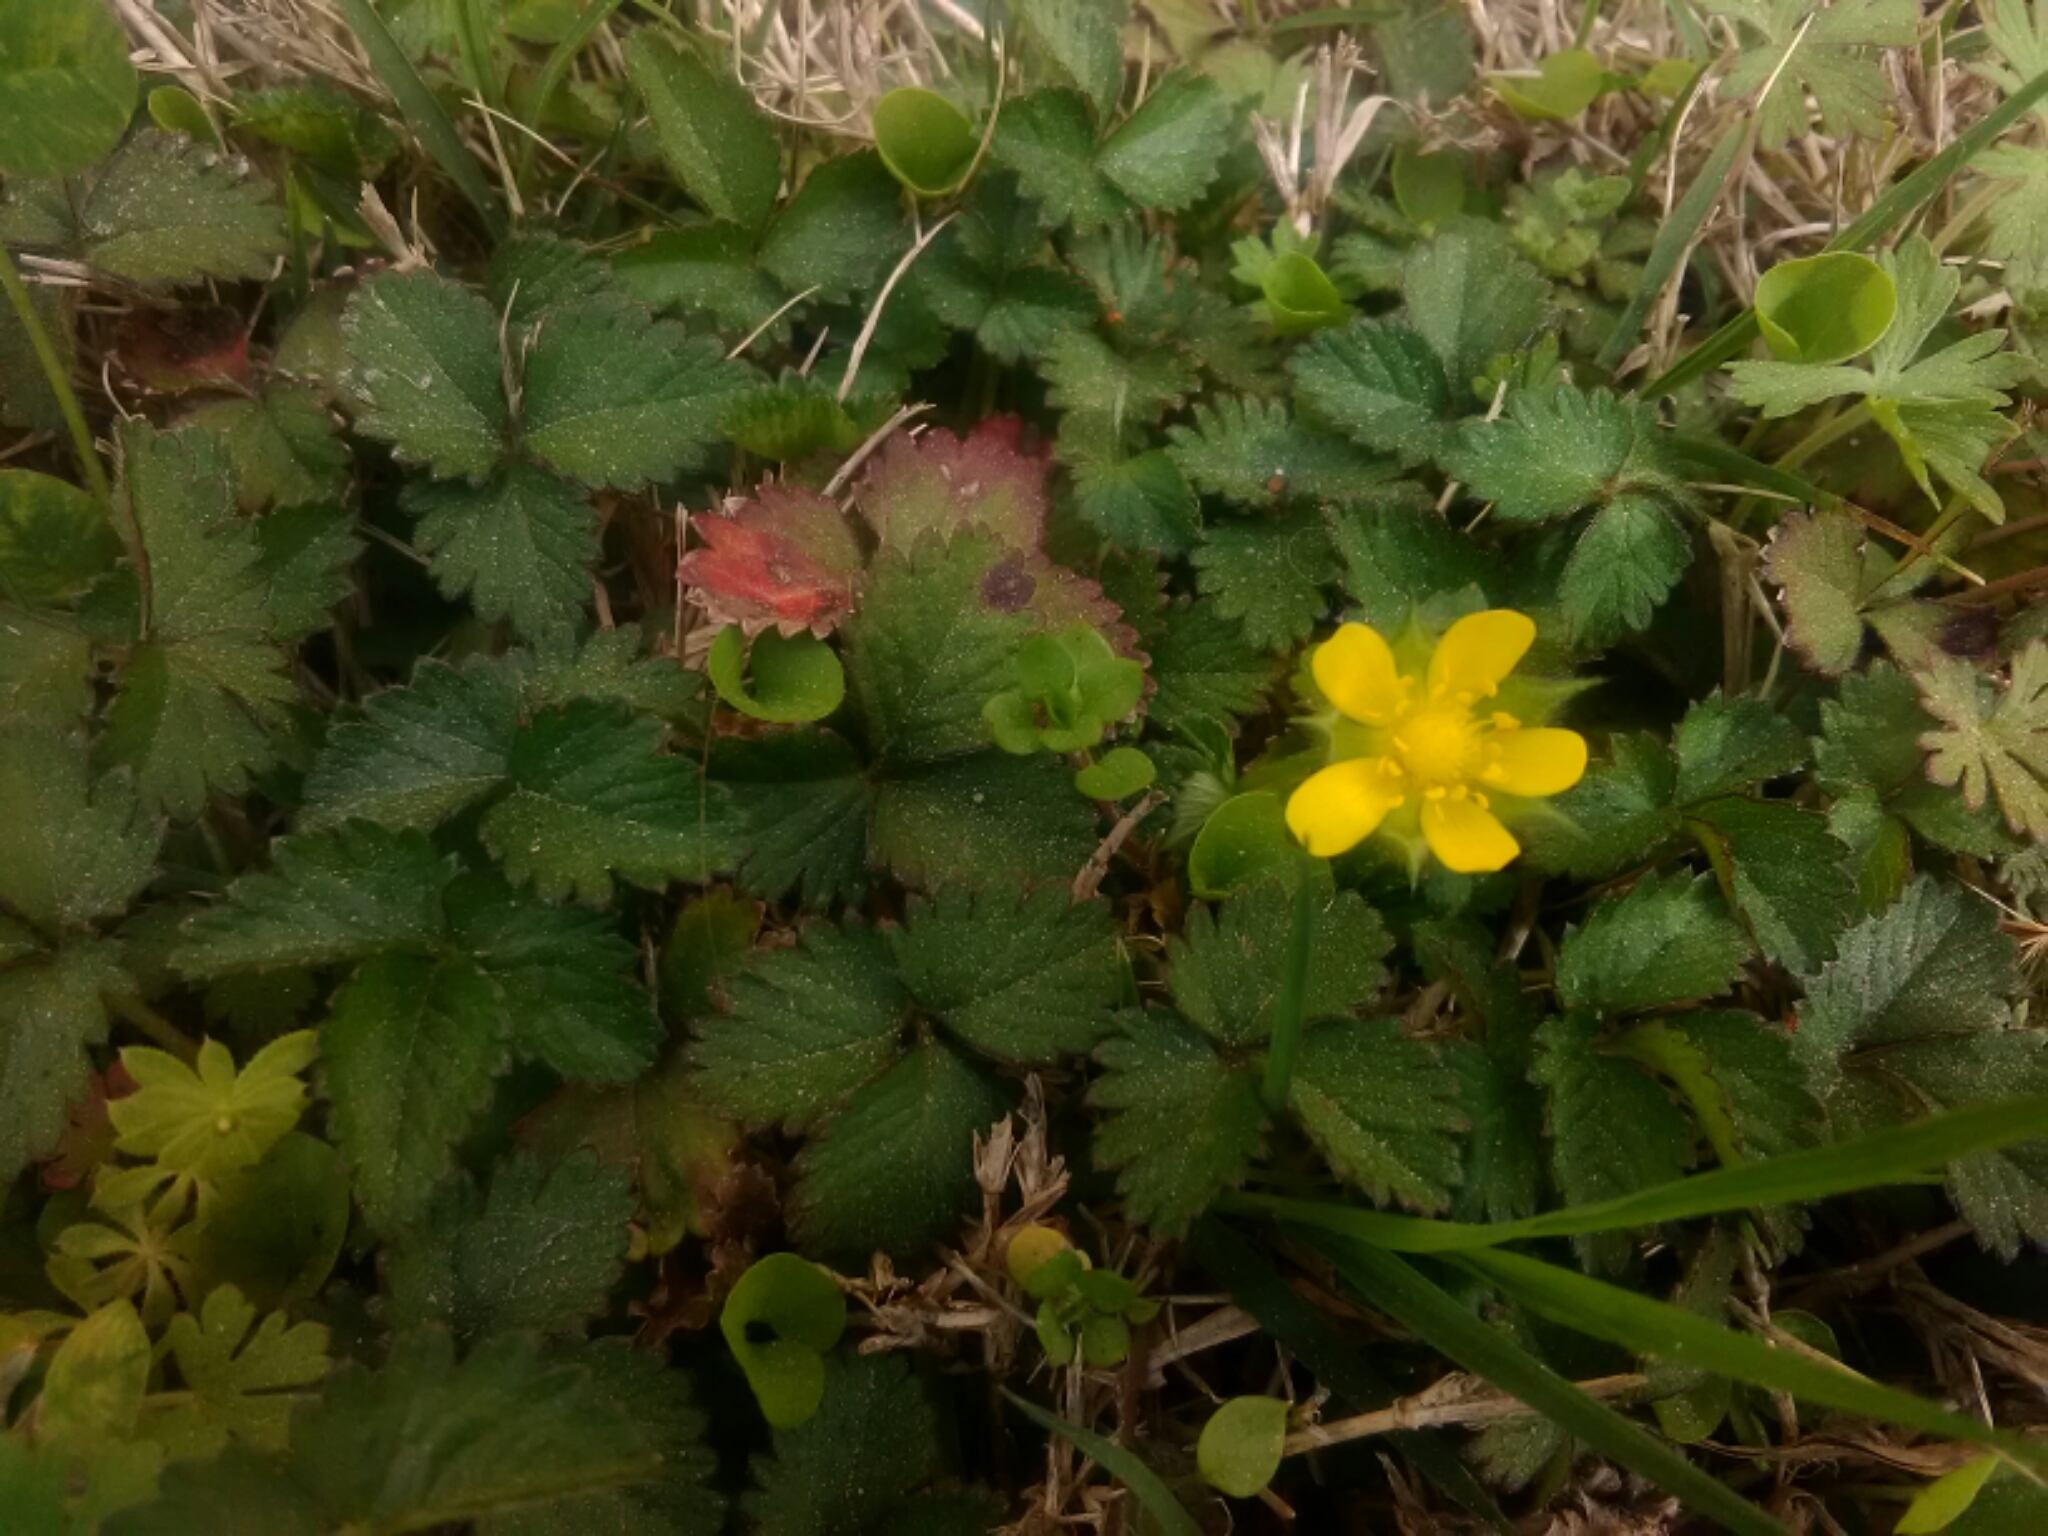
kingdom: Plantae
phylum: Tracheophyta
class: Magnoliopsida
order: Rosales
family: Rosaceae
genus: Potentilla
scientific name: Potentilla indica
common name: Yellow-flowered strawberry
